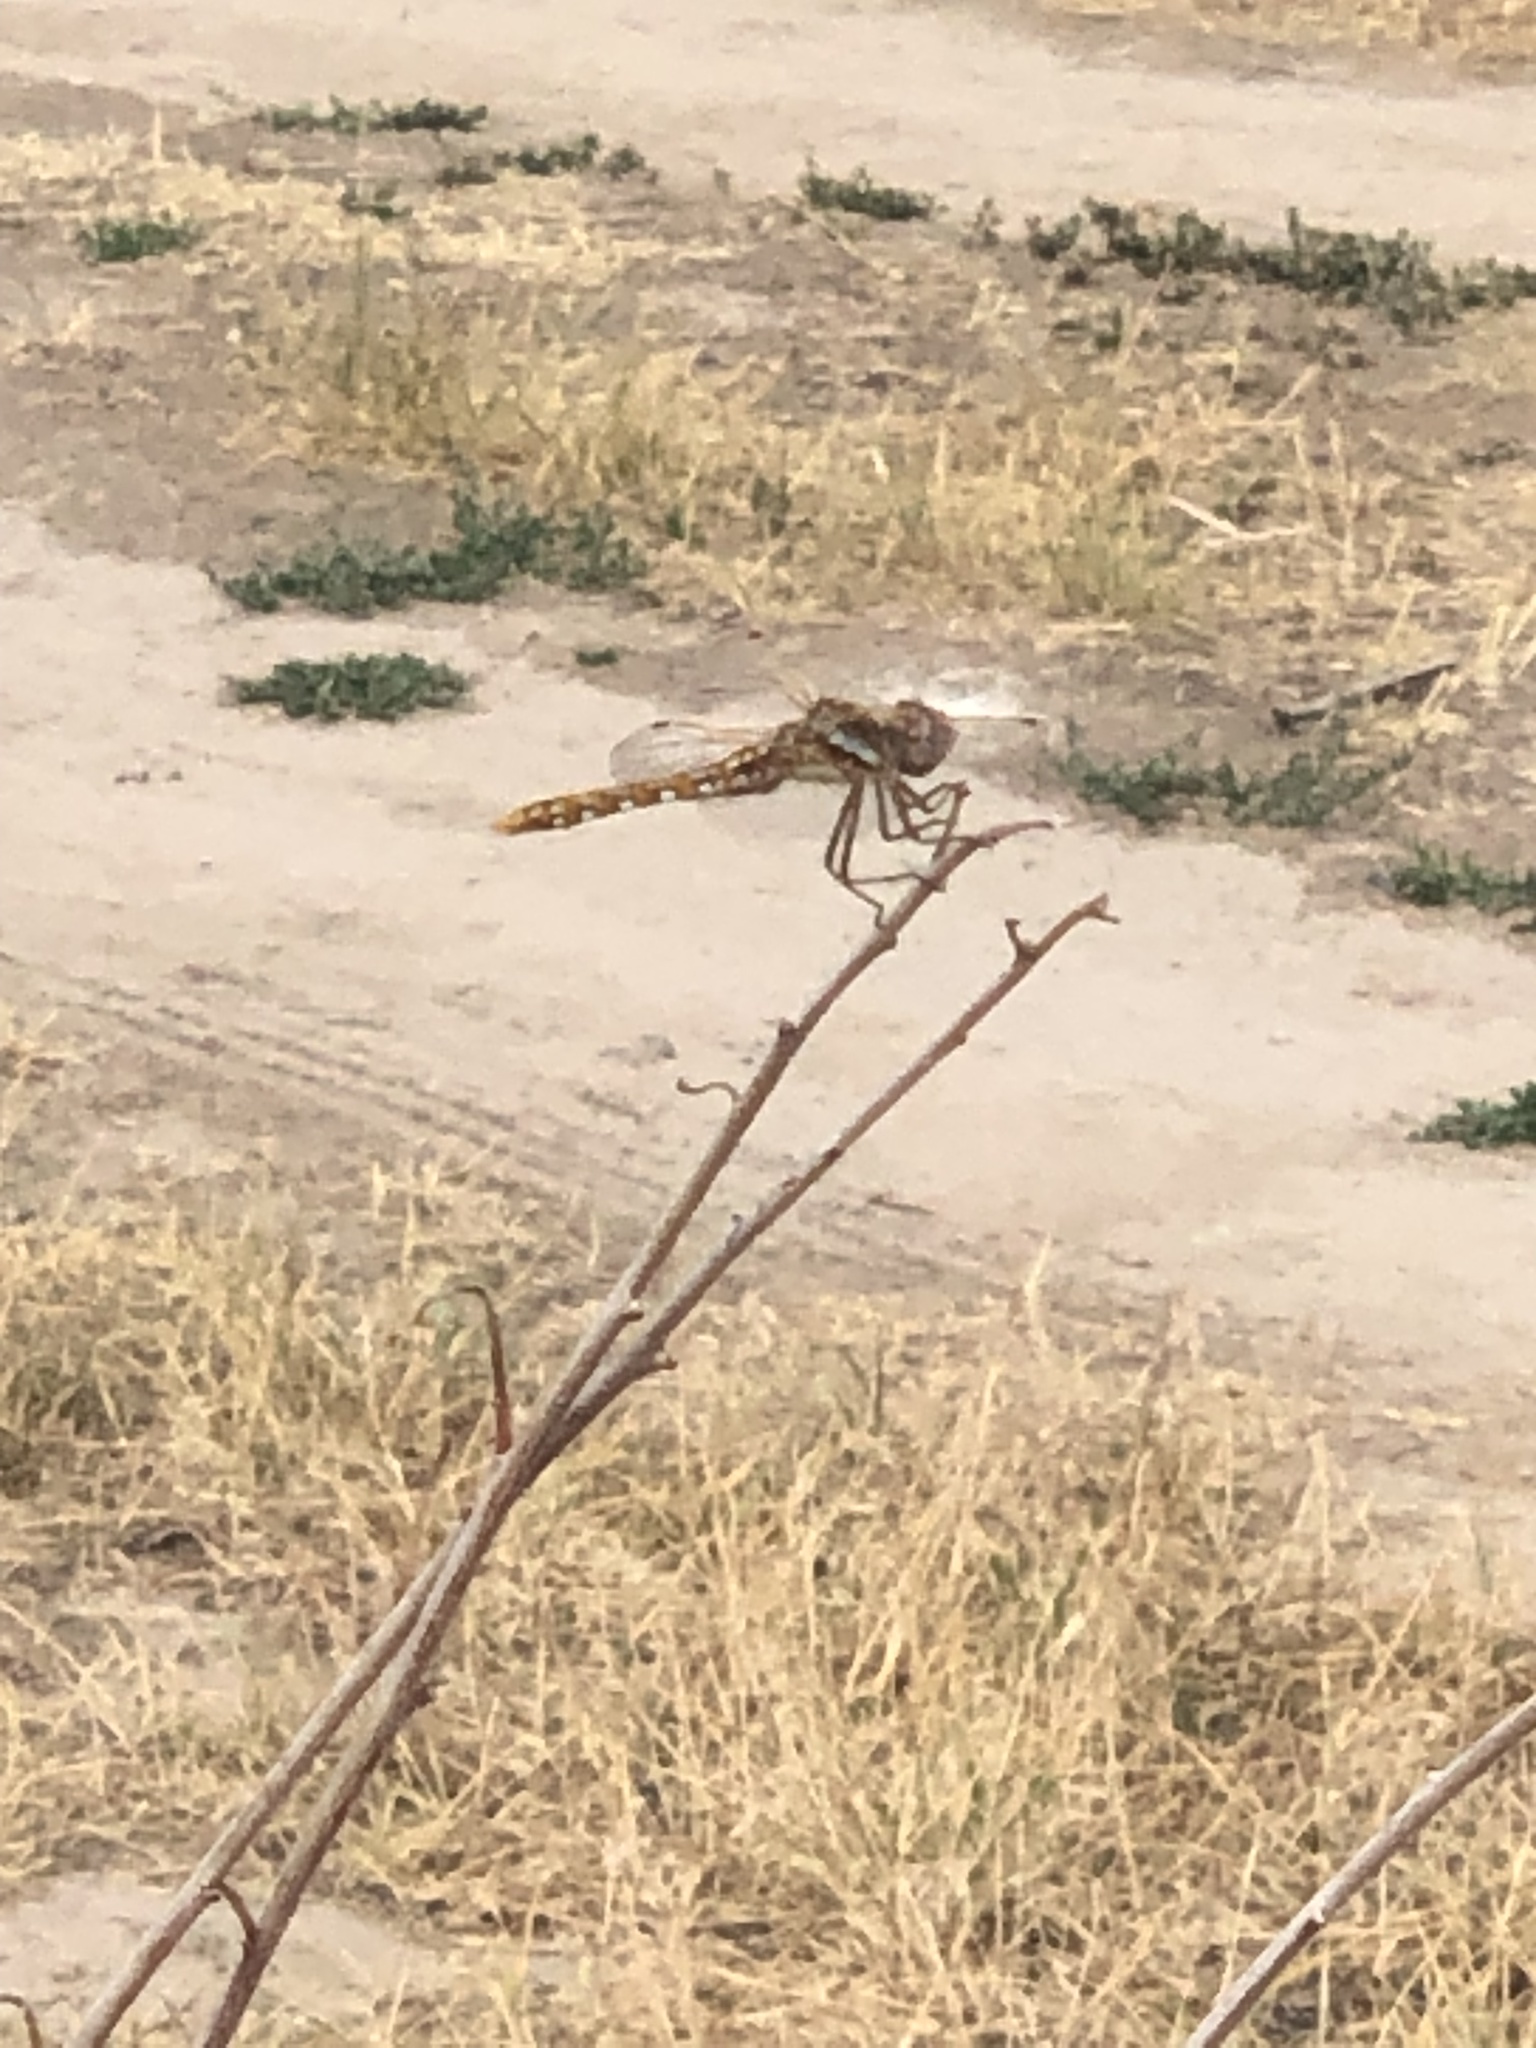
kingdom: Animalia
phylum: Arthropoda
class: Insecta
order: Odonata
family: Libellulidae
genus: Sympetrum
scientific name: Sympetrum corruptum
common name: Variegated meadowhawk
